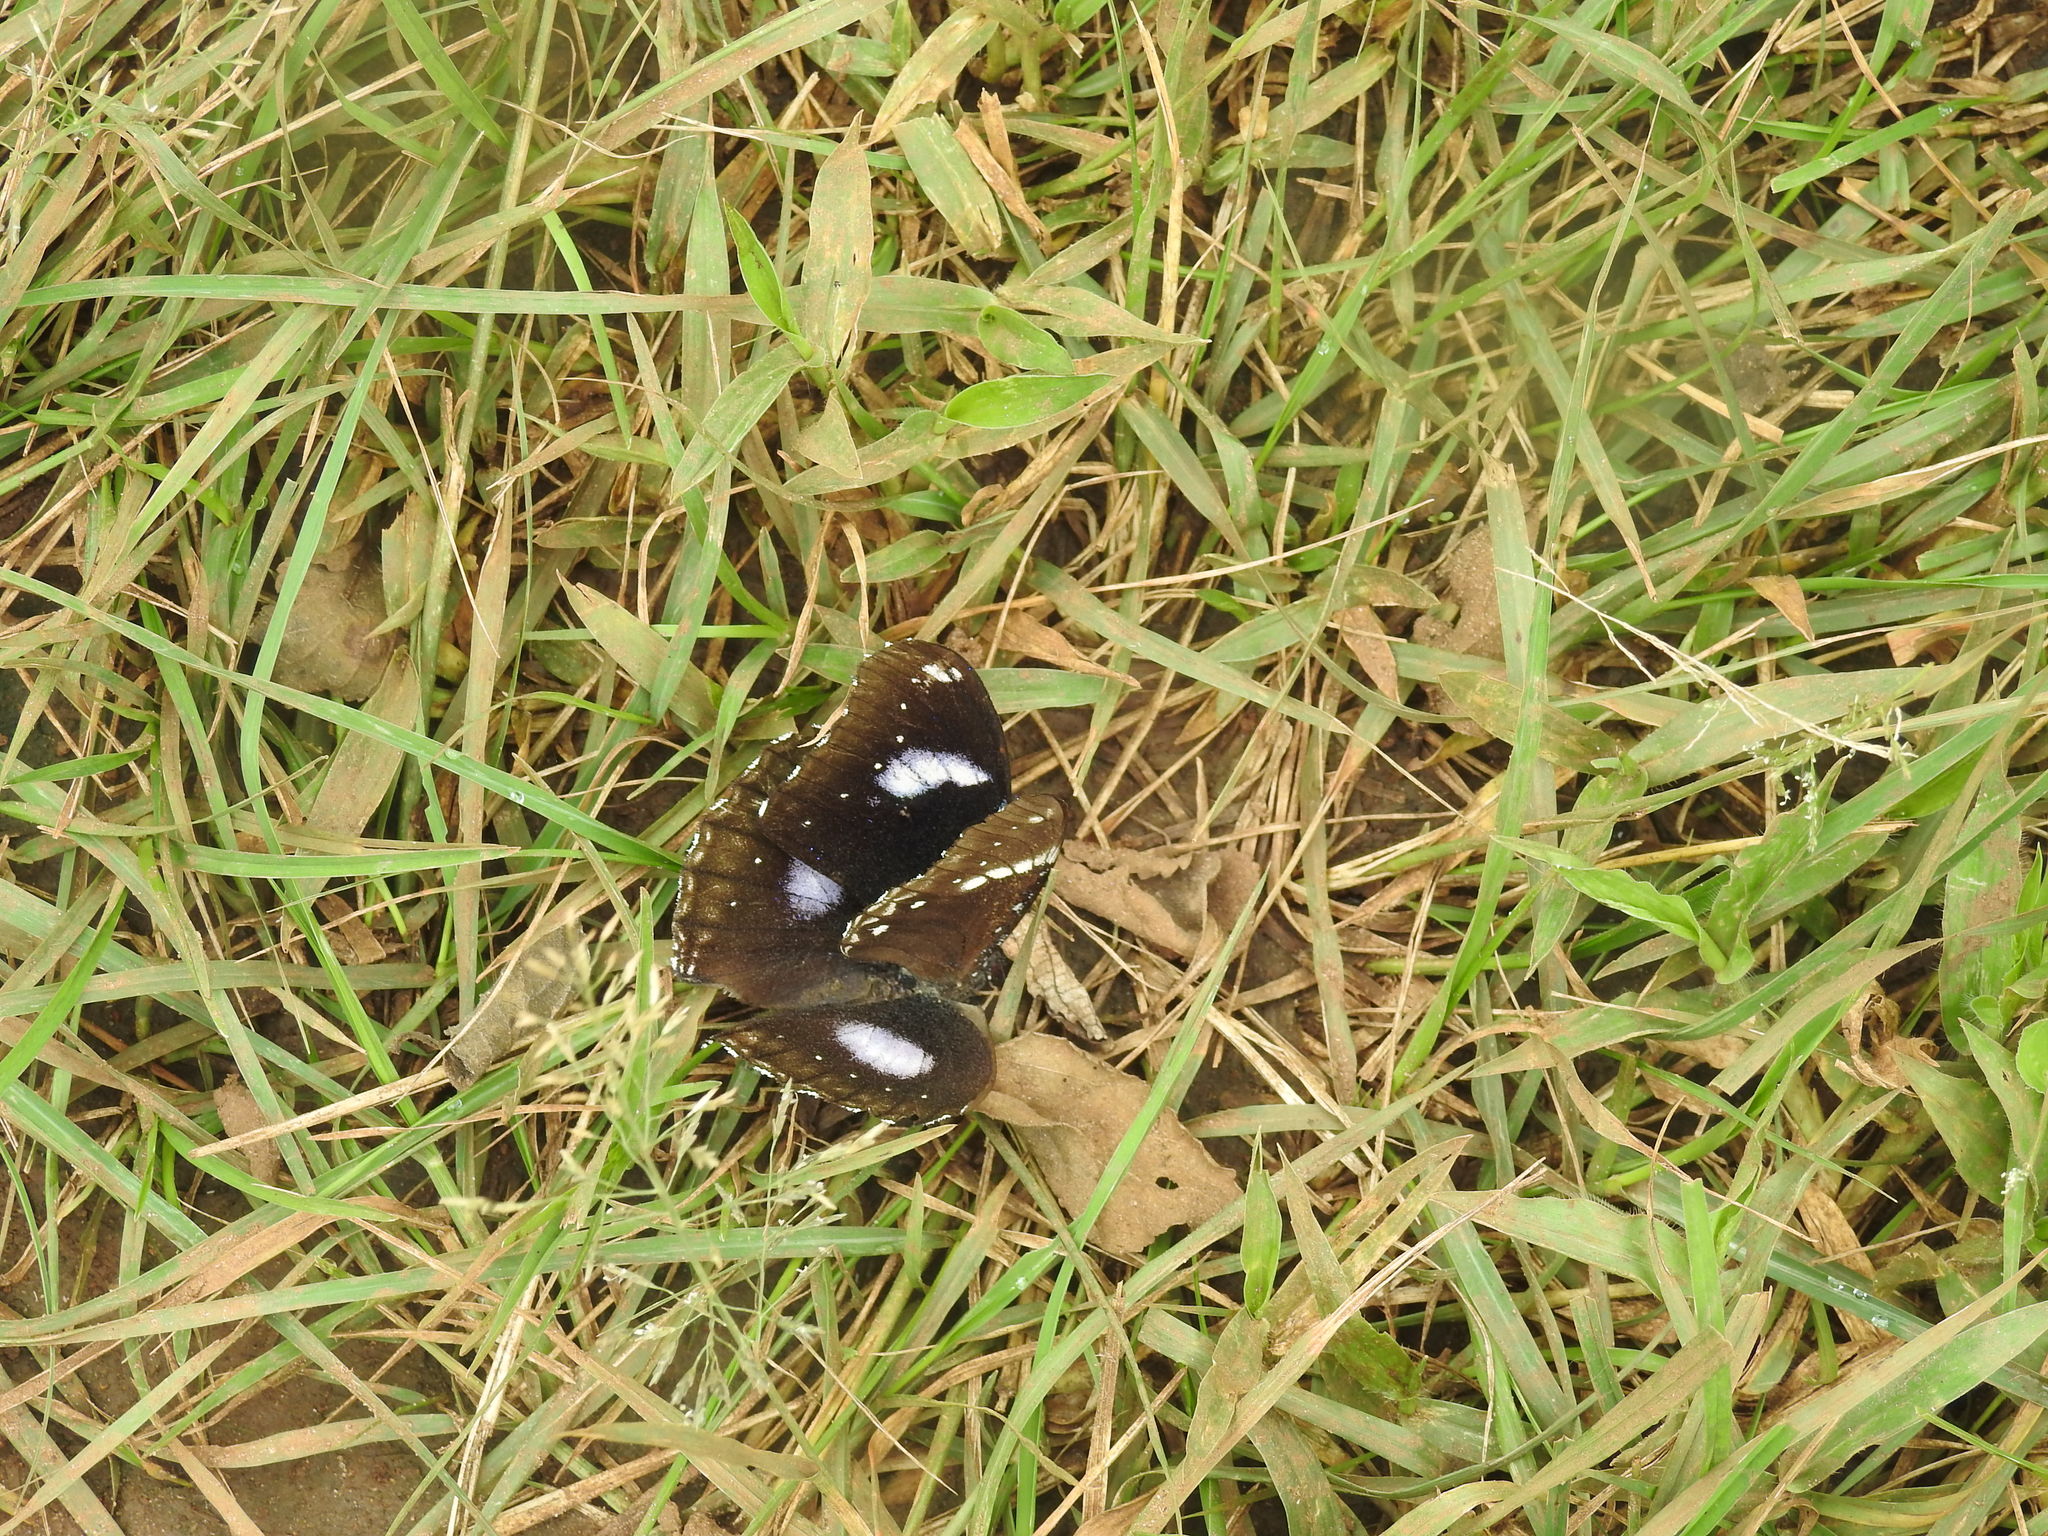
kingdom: Animalia
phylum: Arthropoda
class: Insecta
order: Lepidoptera
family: Nymphalidae
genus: Hypolimnas
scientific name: Hypolimnas bolina
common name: Great eggfly
